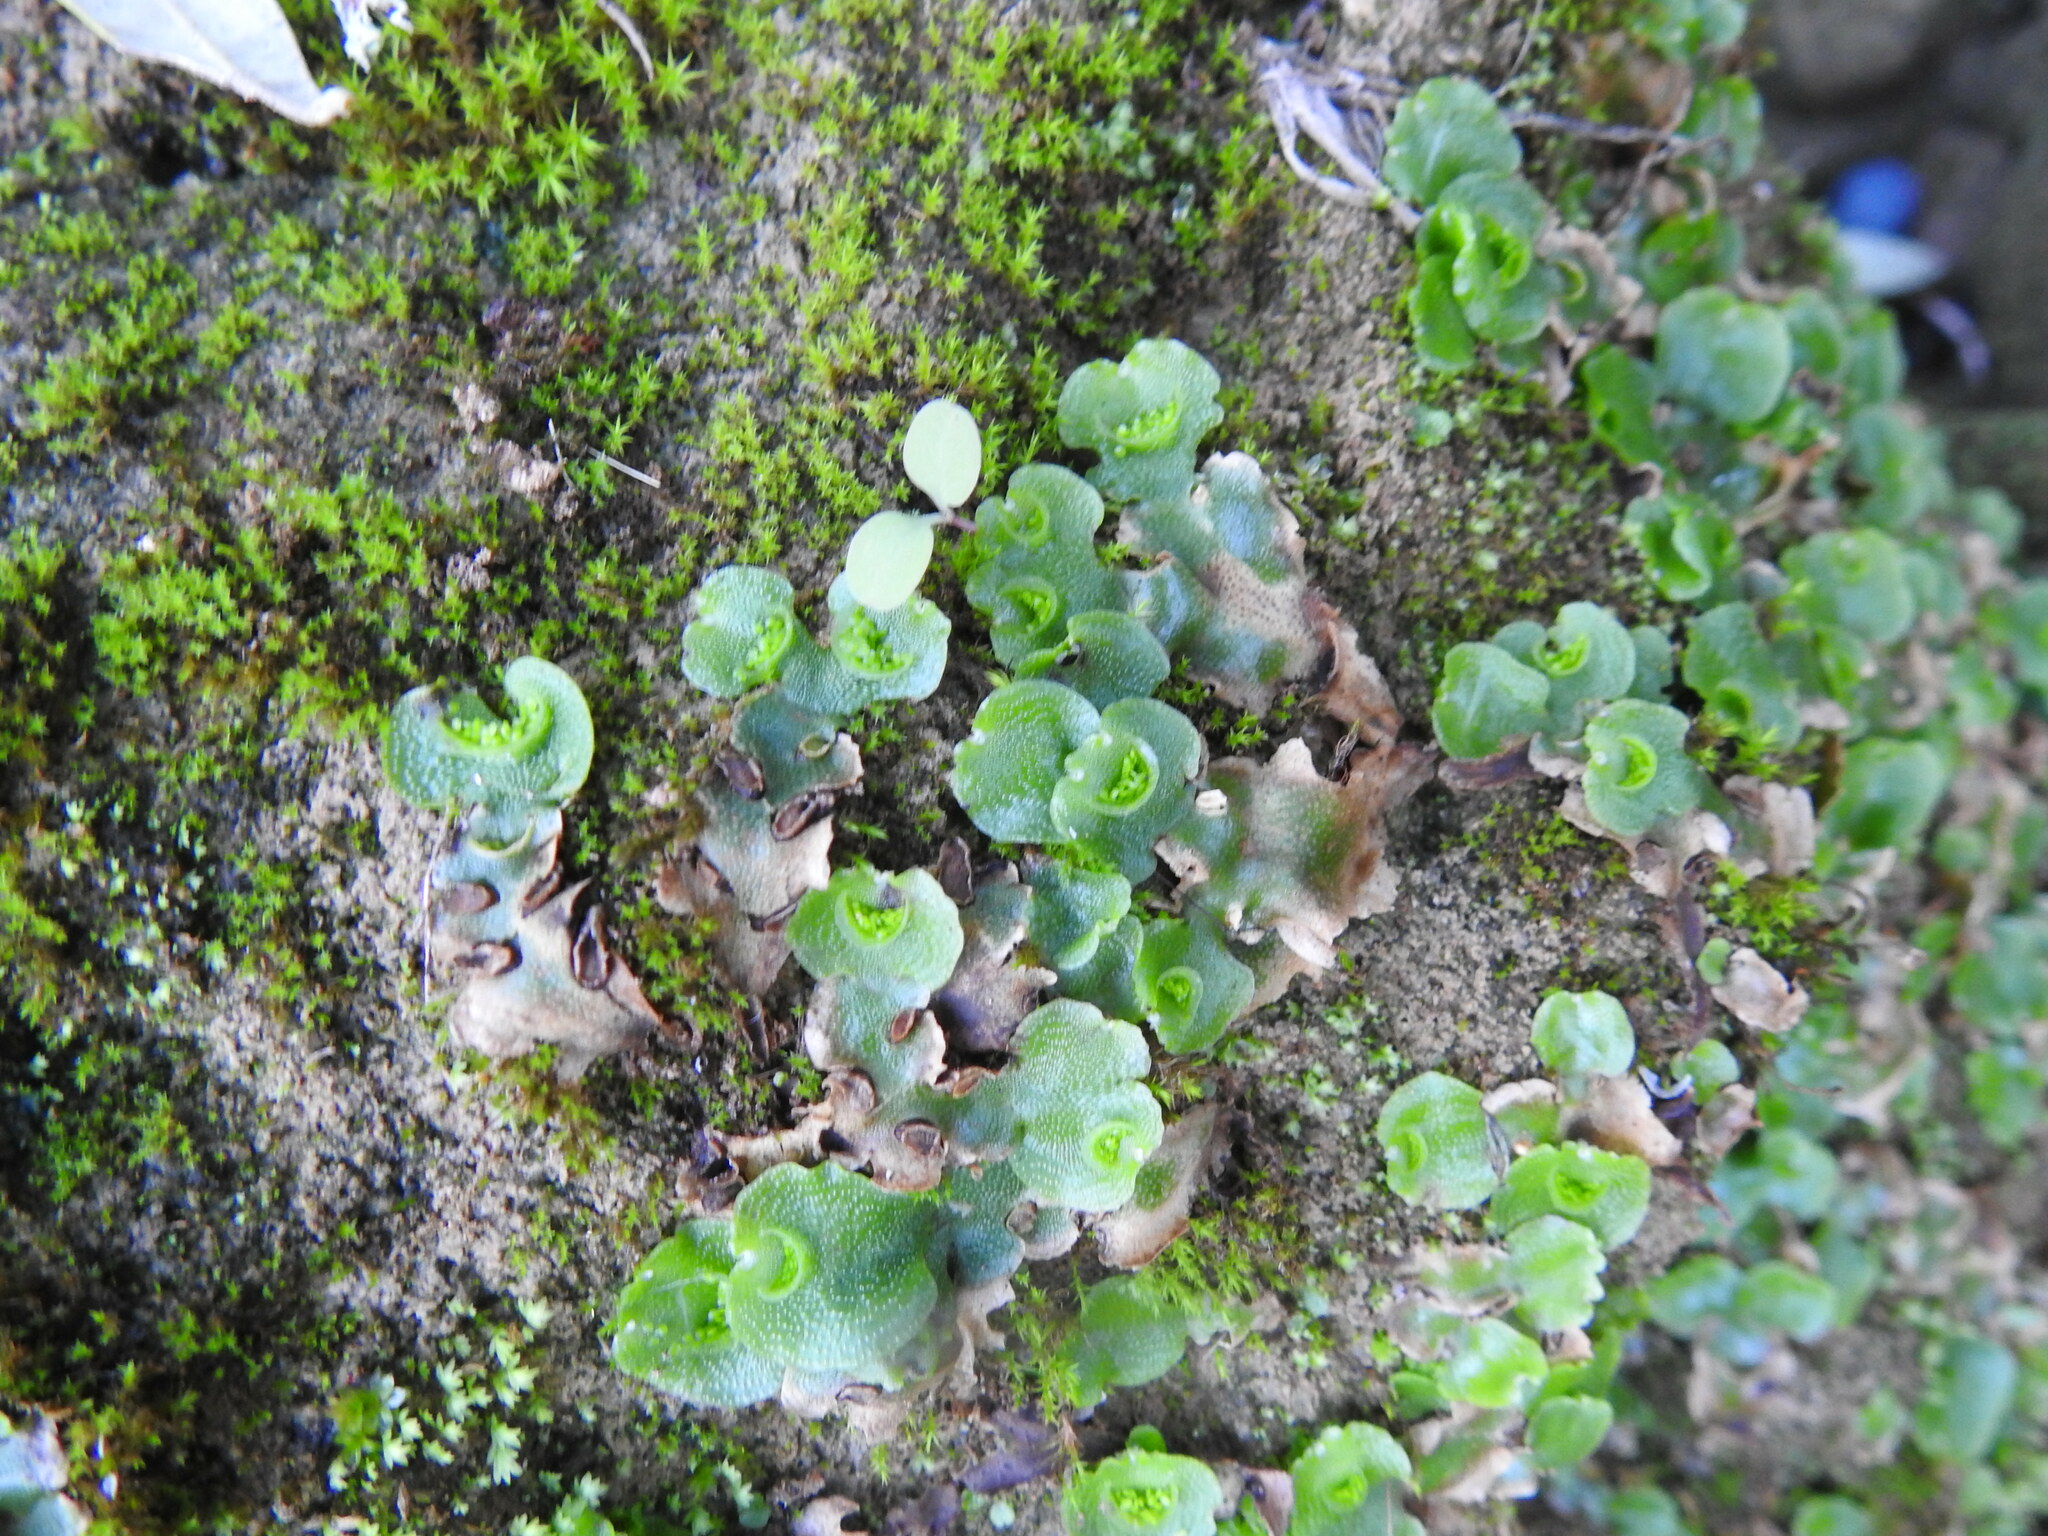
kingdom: Plantae
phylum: Marchantiophyta
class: Marchantiopsida
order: Lunulariales
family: Lunulariaceae
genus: Lunularia
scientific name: Lunularia cruciata
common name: Crescent-cup liverwort
